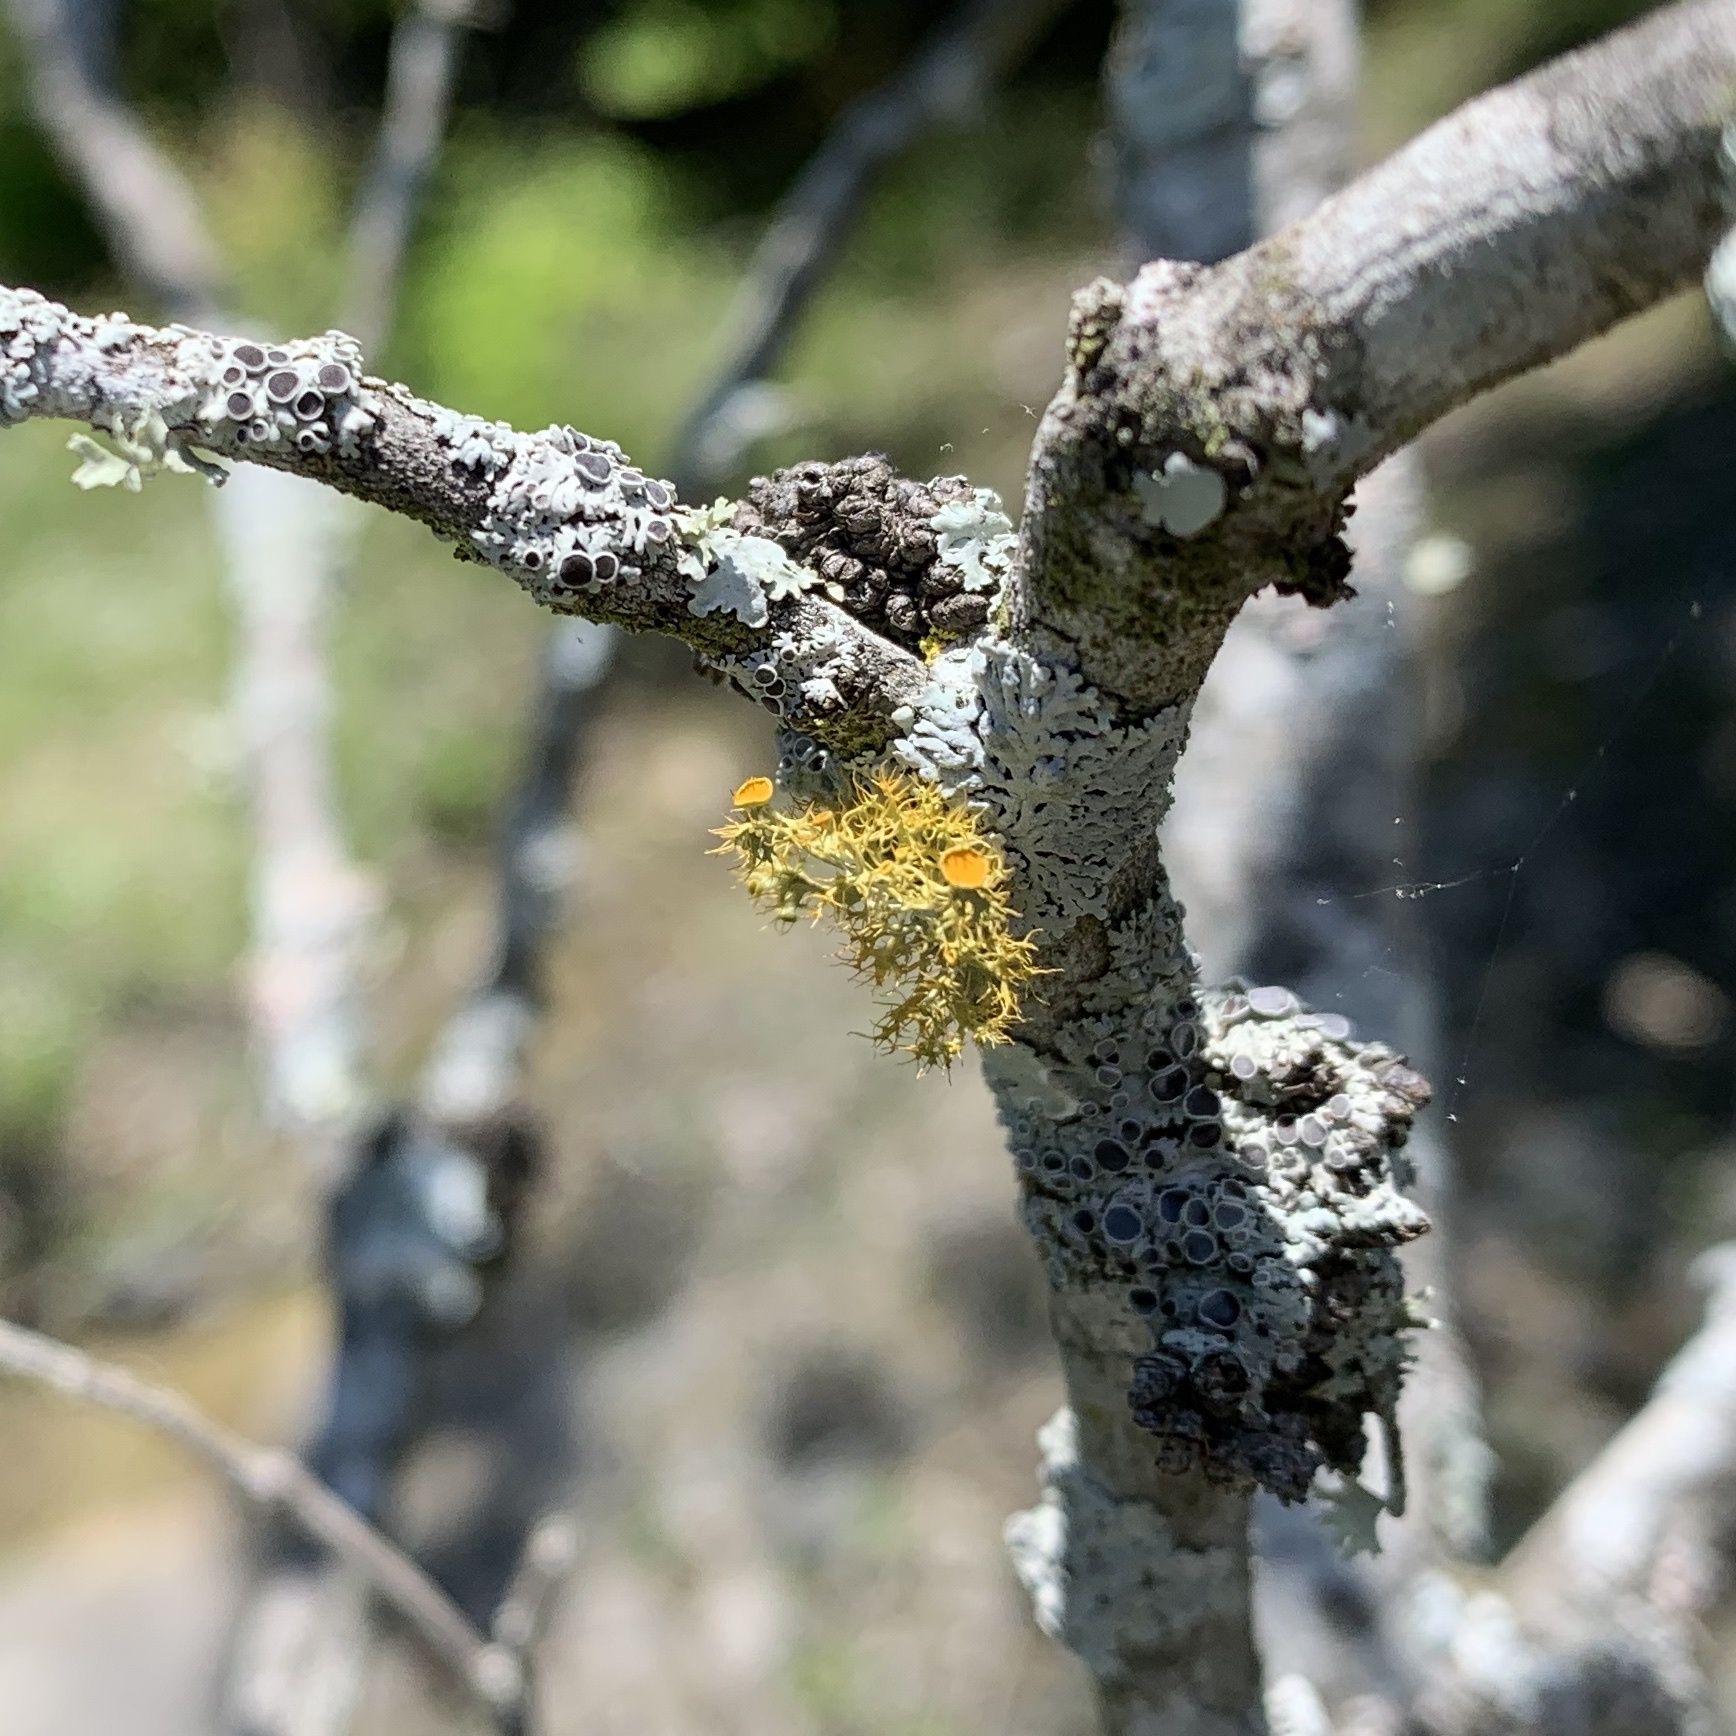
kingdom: Fungi
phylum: Ascomycota
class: Lecanoromycetes
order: Teloschistales
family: Teloschistaceae
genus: Niorma
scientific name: Niorma chrysophthalma
